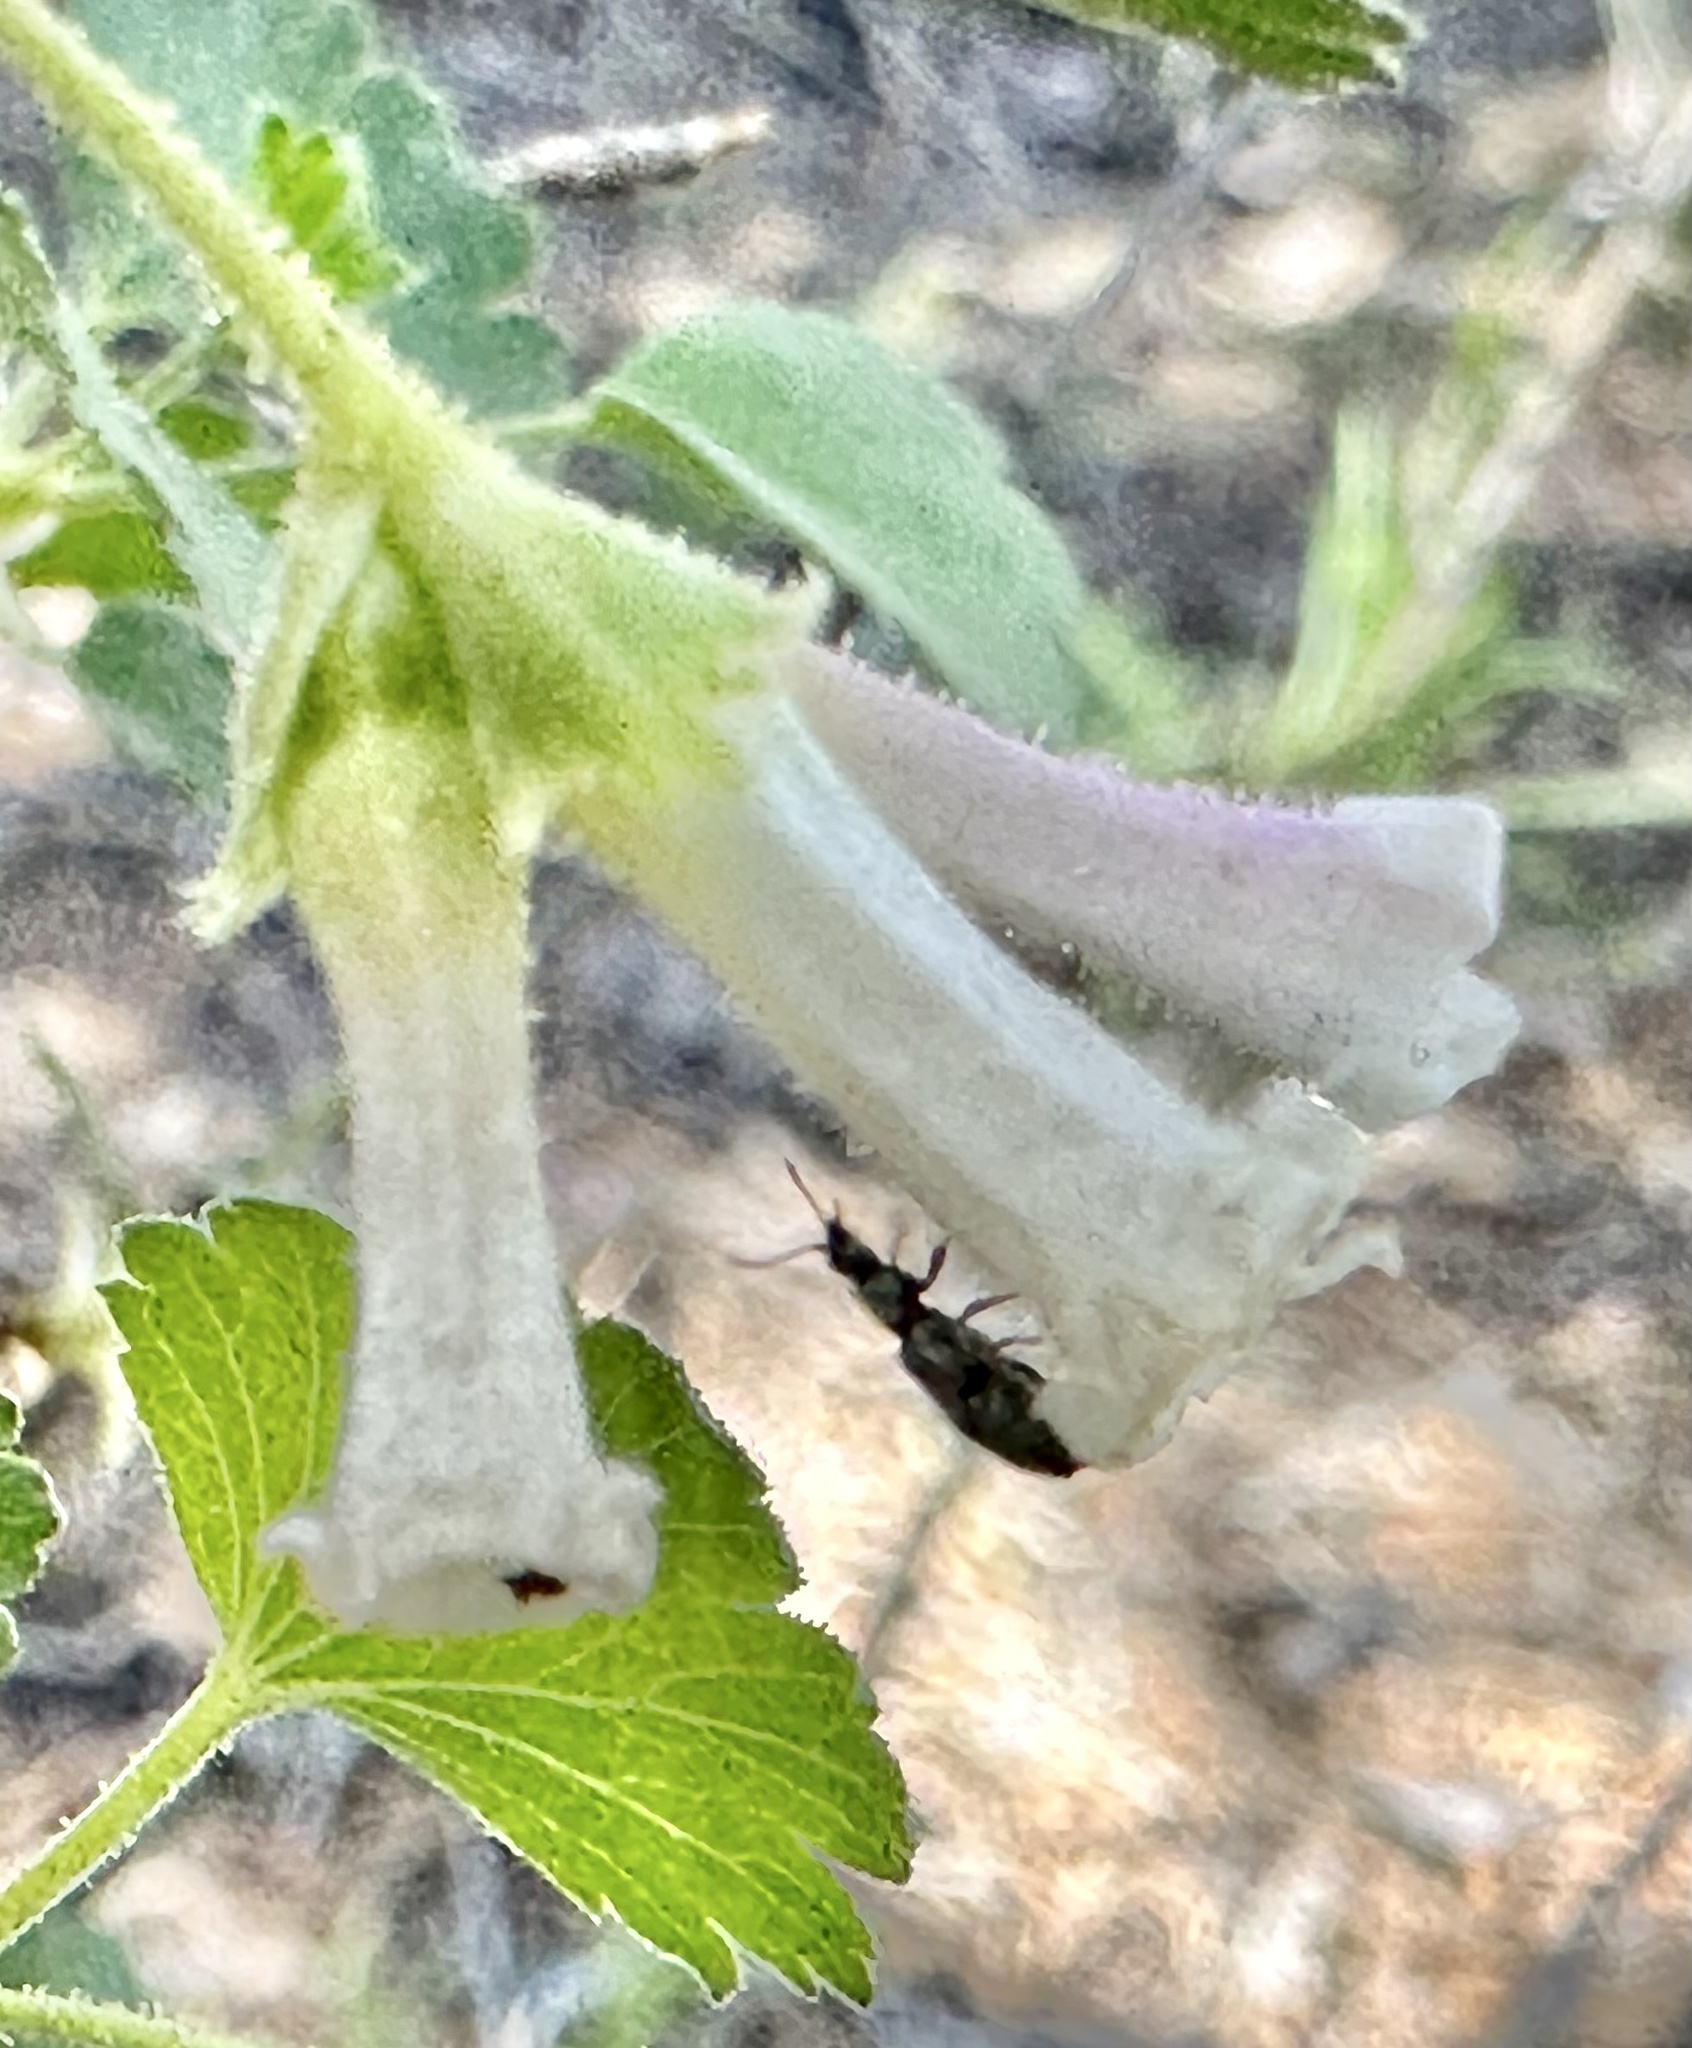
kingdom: Plantae
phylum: Tracheophyta
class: Magnoliopsida
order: Saxifragales
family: Grossulariaceae
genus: Ribes
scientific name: Ribes cereum
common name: Wax currant
